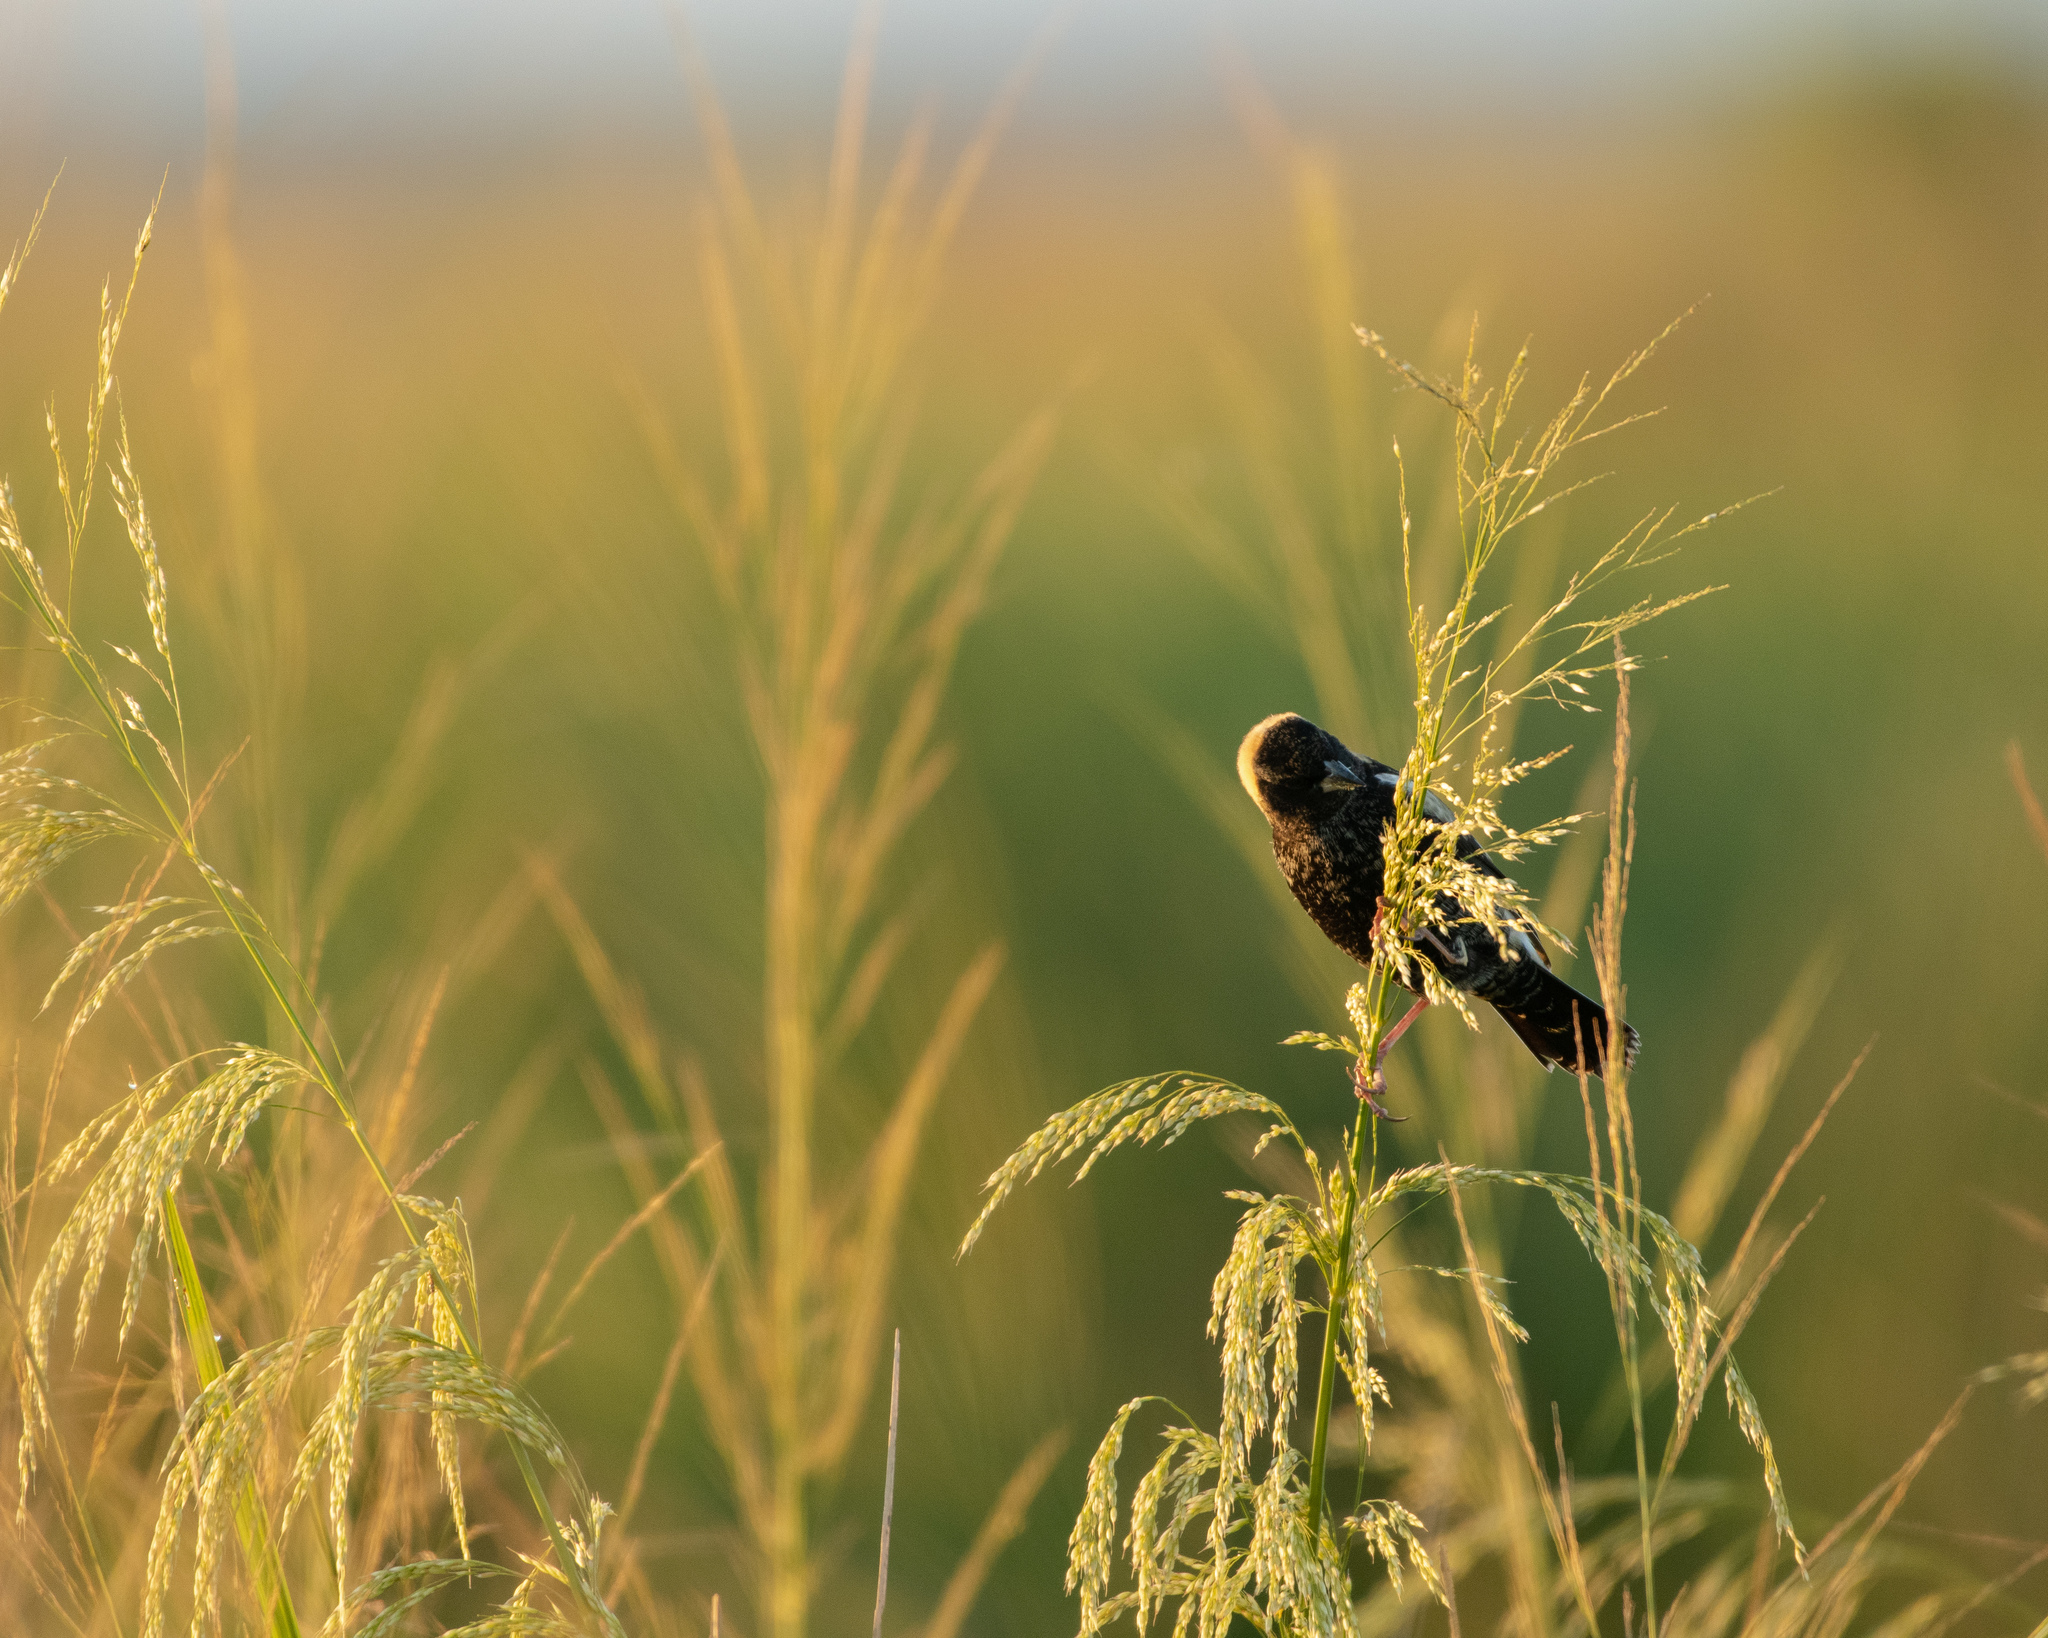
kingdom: Animalia
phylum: Chordata
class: Aves
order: Passeriformes
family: Icteridae
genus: Dolichonyx
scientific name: Dolichonyx oryzivorus
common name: Bobolink
